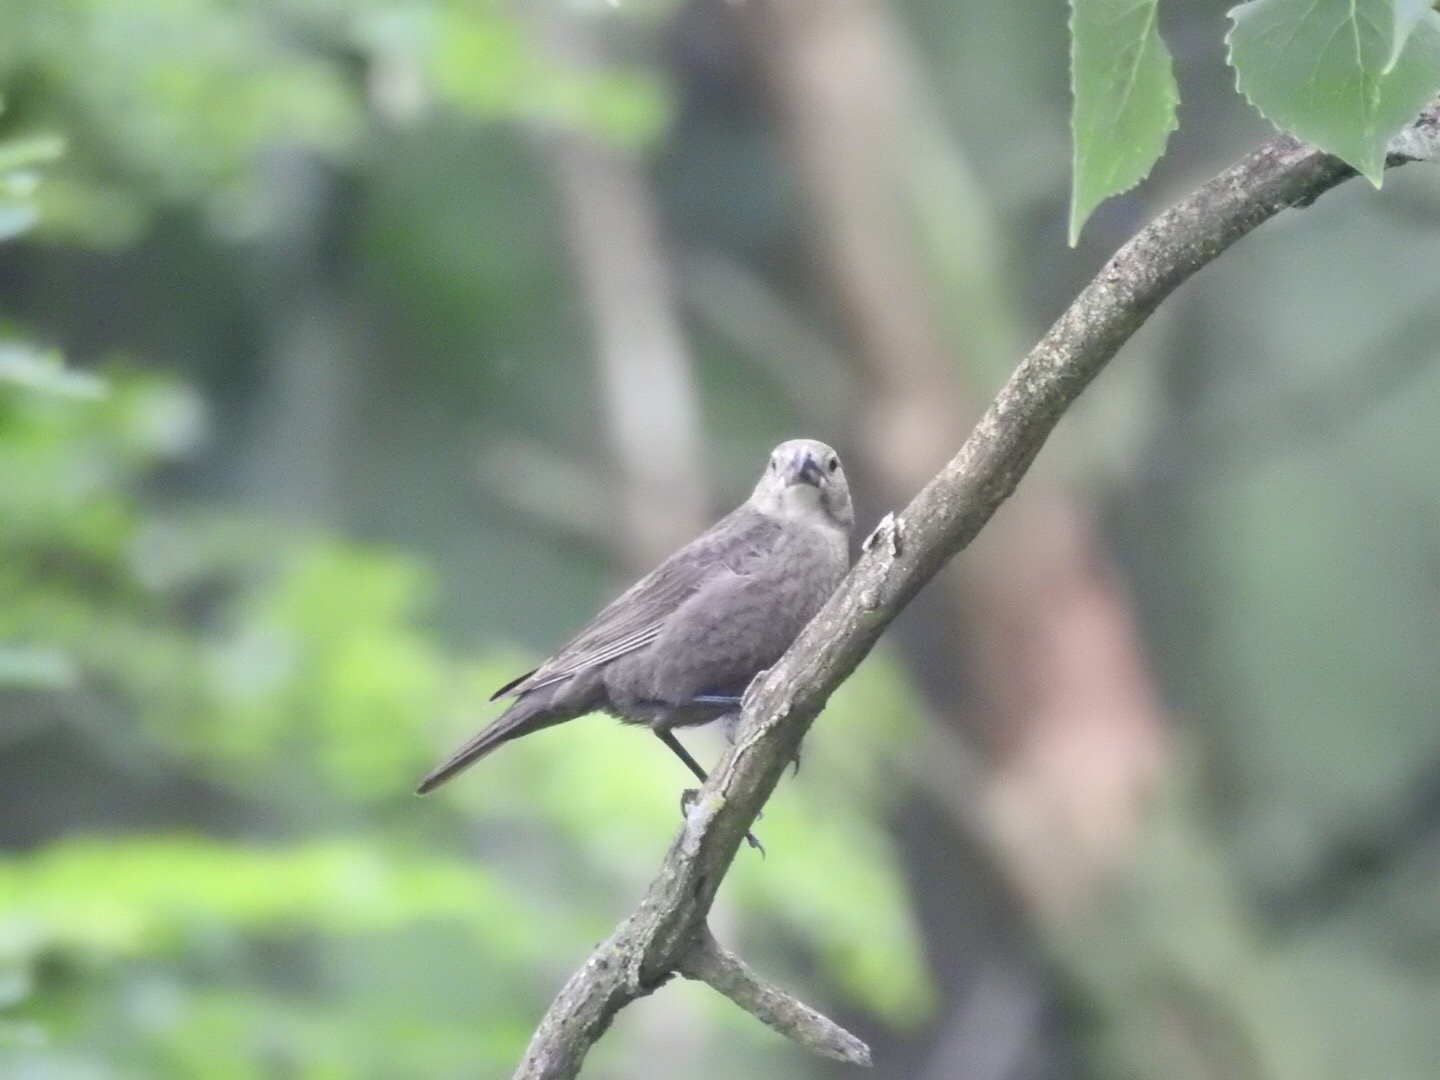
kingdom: Animalia
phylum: Chordata
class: Aves
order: Passeriformes
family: Icteridae
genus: Molothrus
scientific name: Molothrus ater
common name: Brown-headed cowbird
